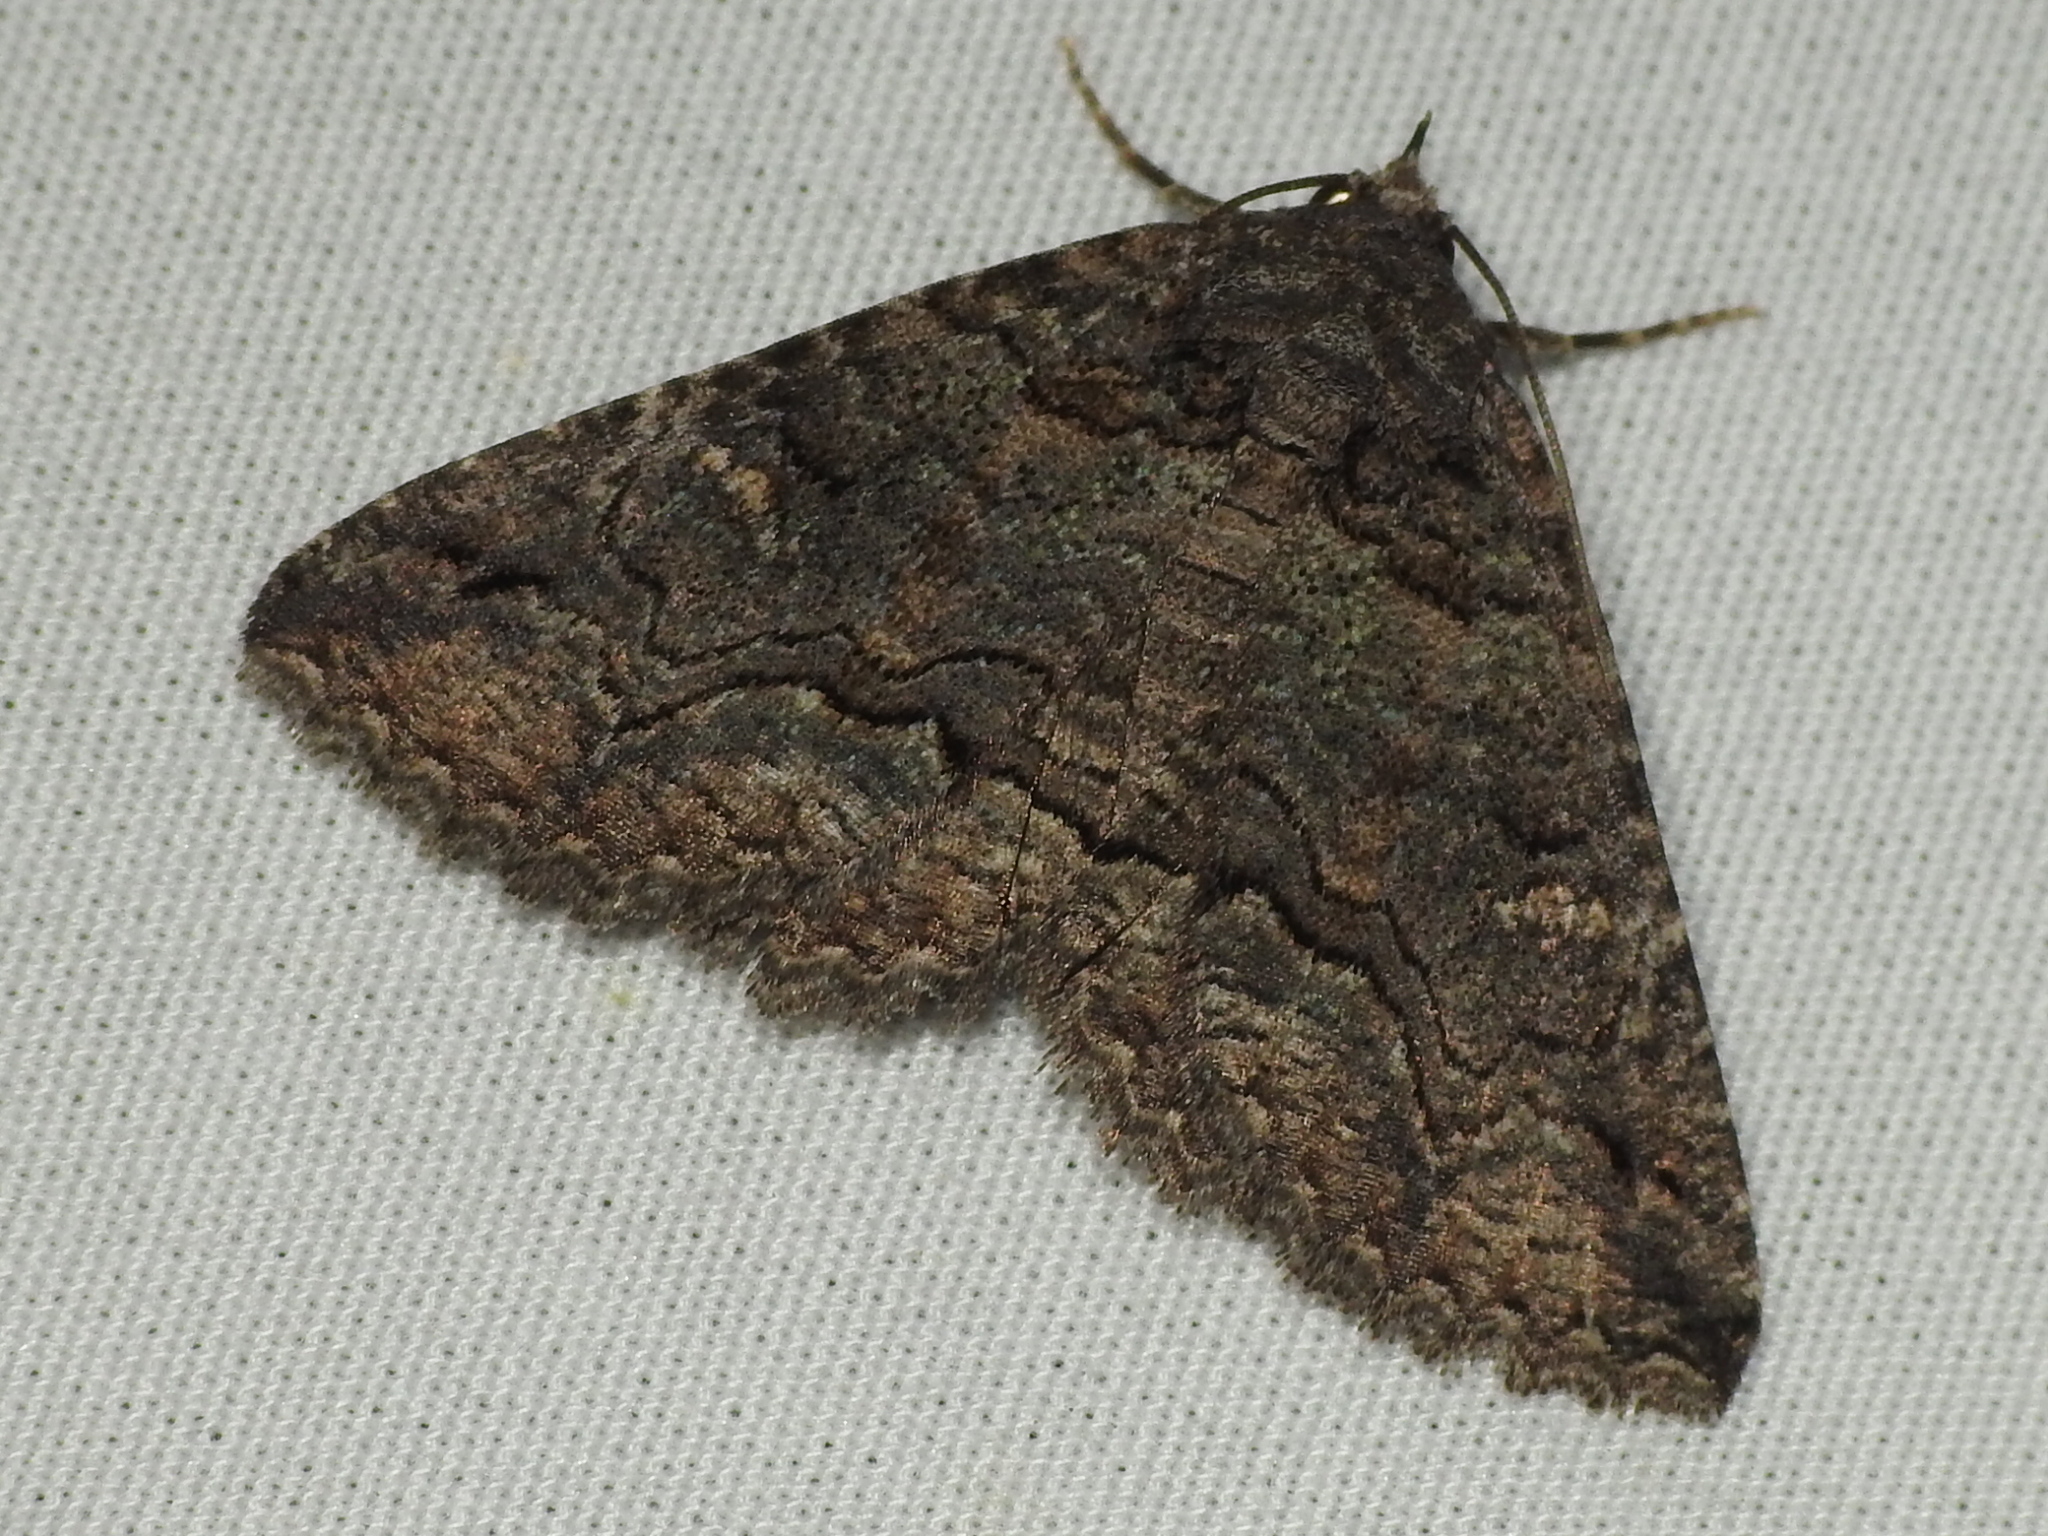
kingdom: Animalia
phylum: Arthropoda
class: Insecta
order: Lepidoptera
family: Erebidae
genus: Zale
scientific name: Zale edusina
